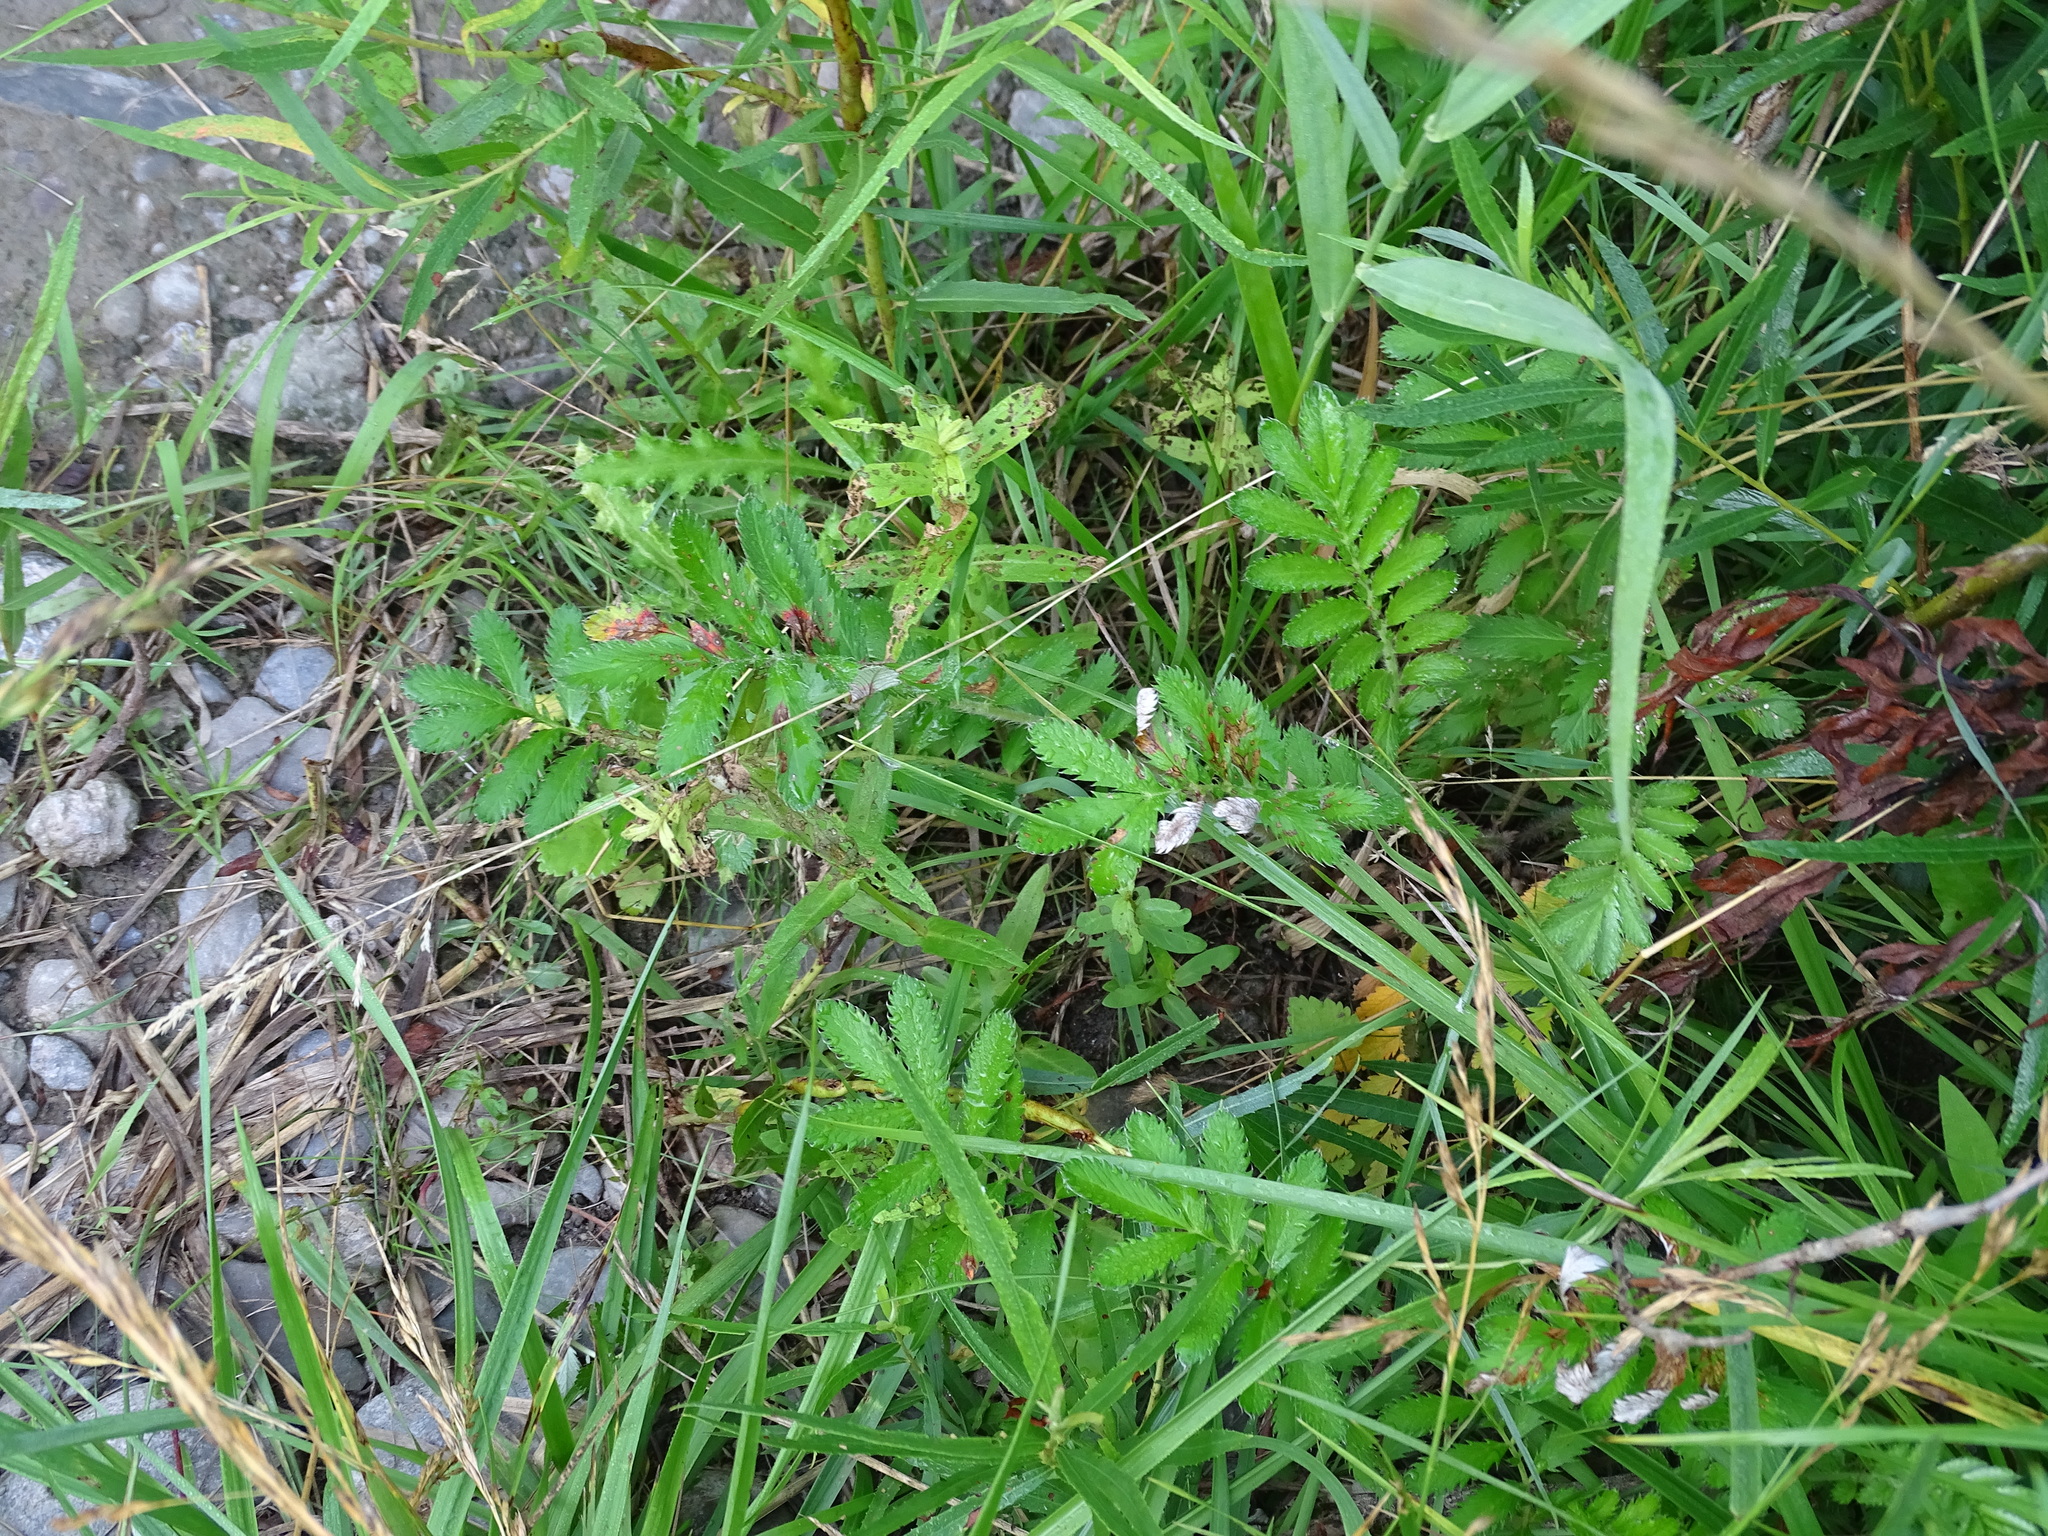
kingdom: Plantae
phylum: Tracheophyta
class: Magnoliopsida
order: Rosales
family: Rosaceae
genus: Argentina
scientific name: Argentina anserina
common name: Common silverweed
